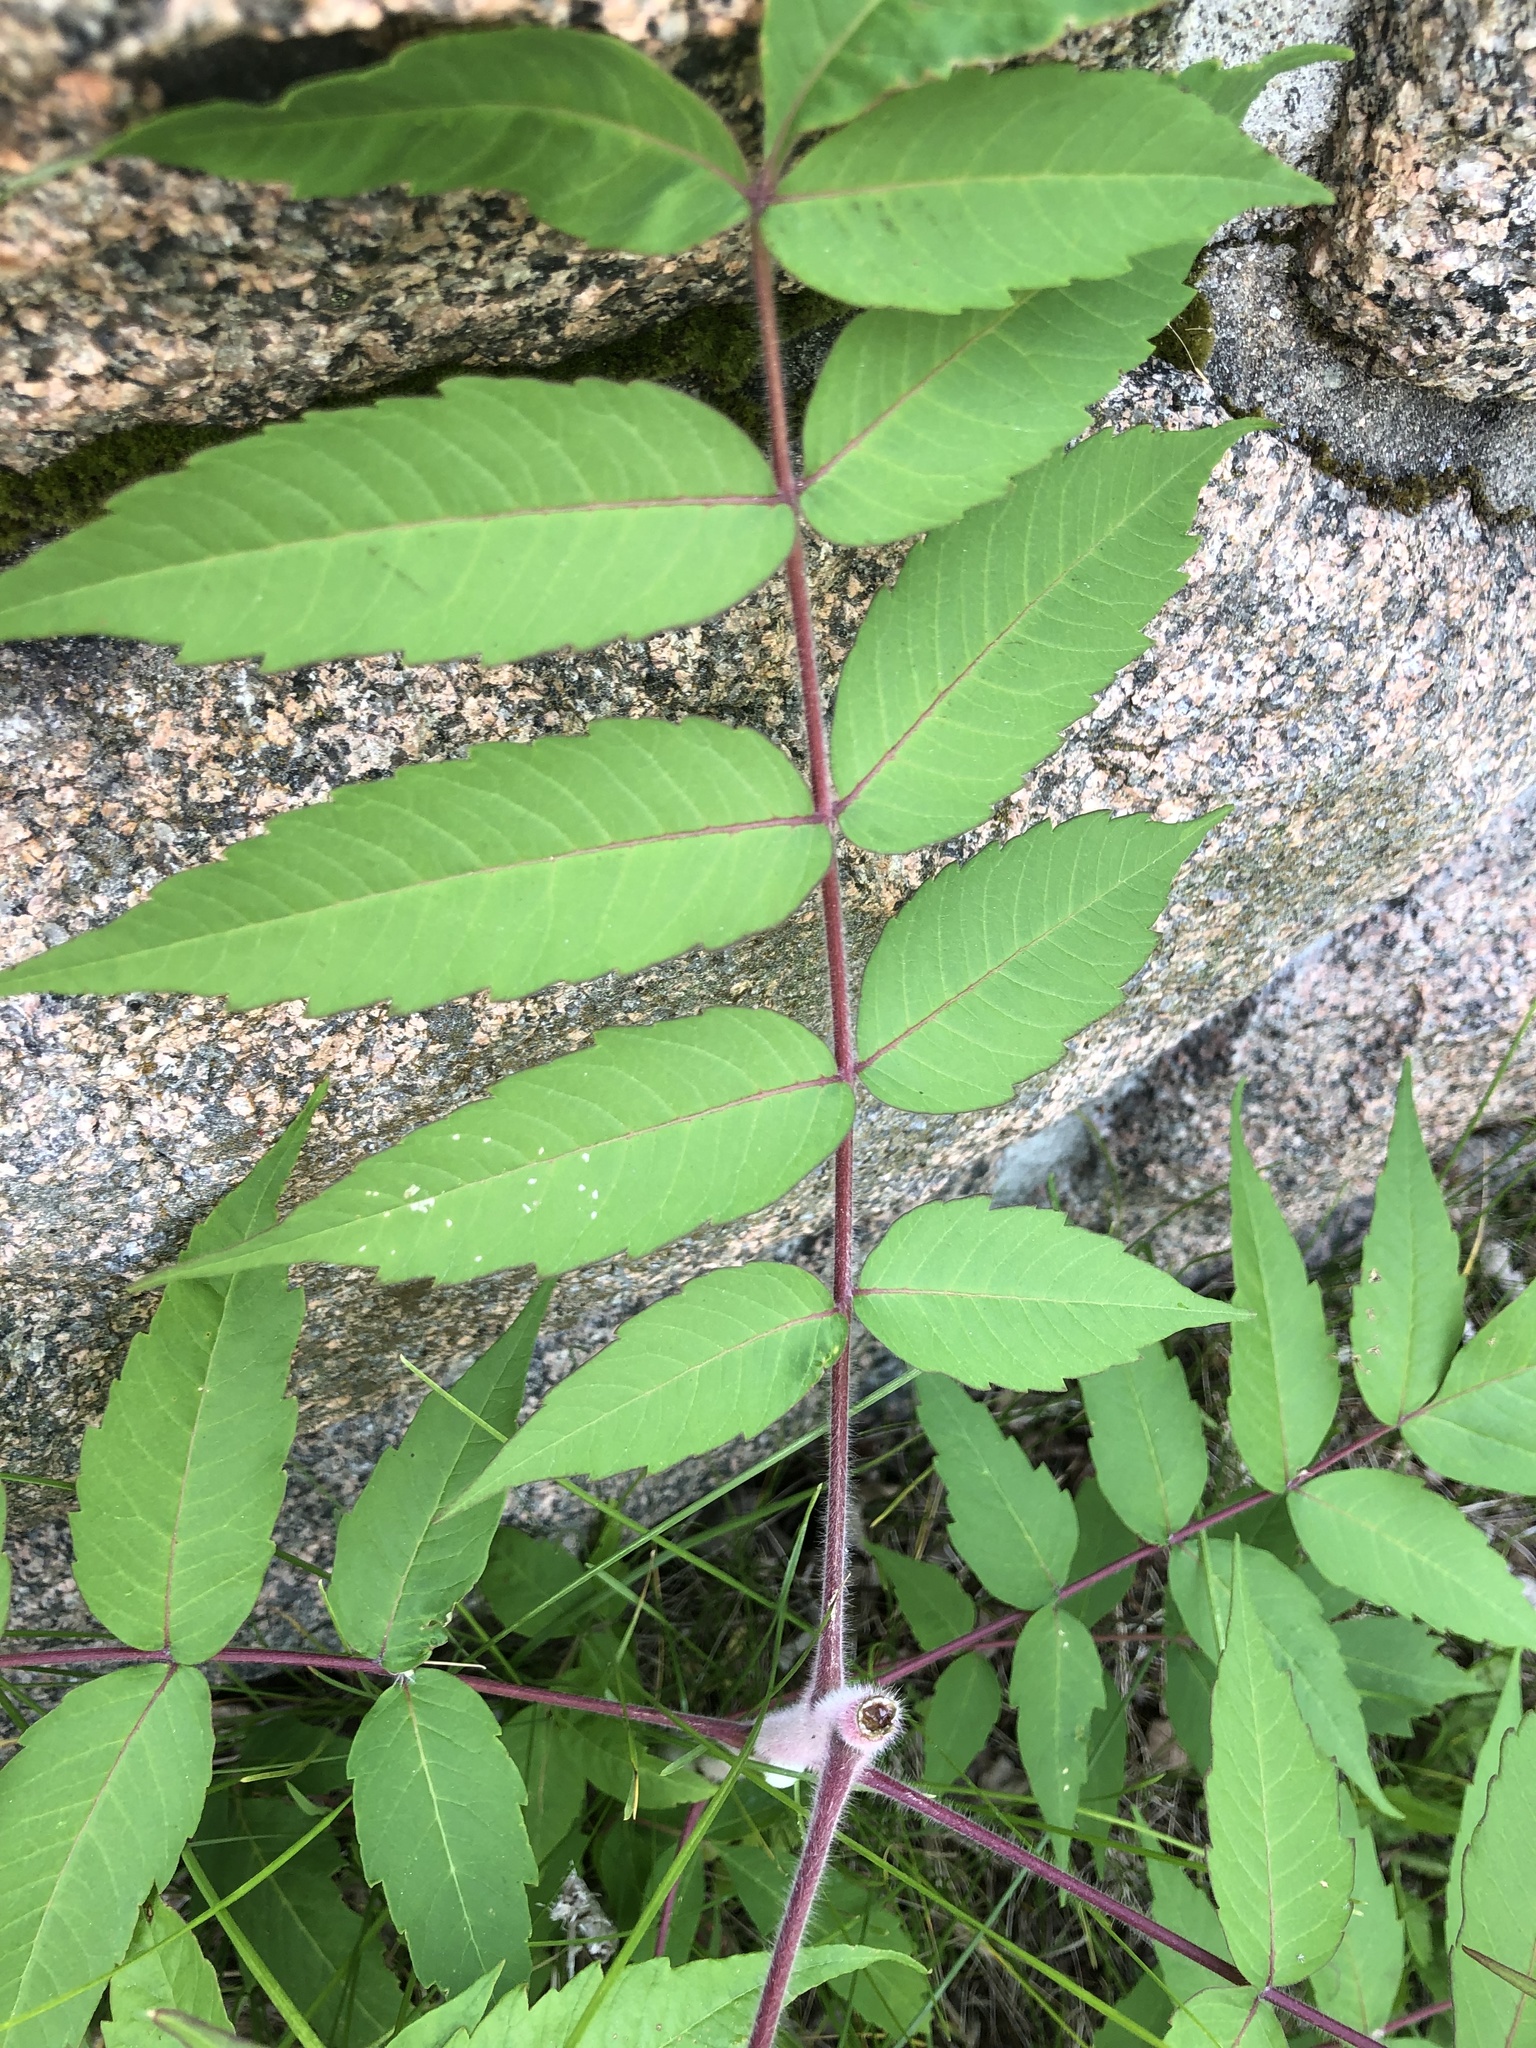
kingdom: Plantae
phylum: Tracheophyta
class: Magnoliopsida
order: Sapindales
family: Anacardiaceae
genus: Rhus
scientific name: Rhus typhina
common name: Staghorn sumac
